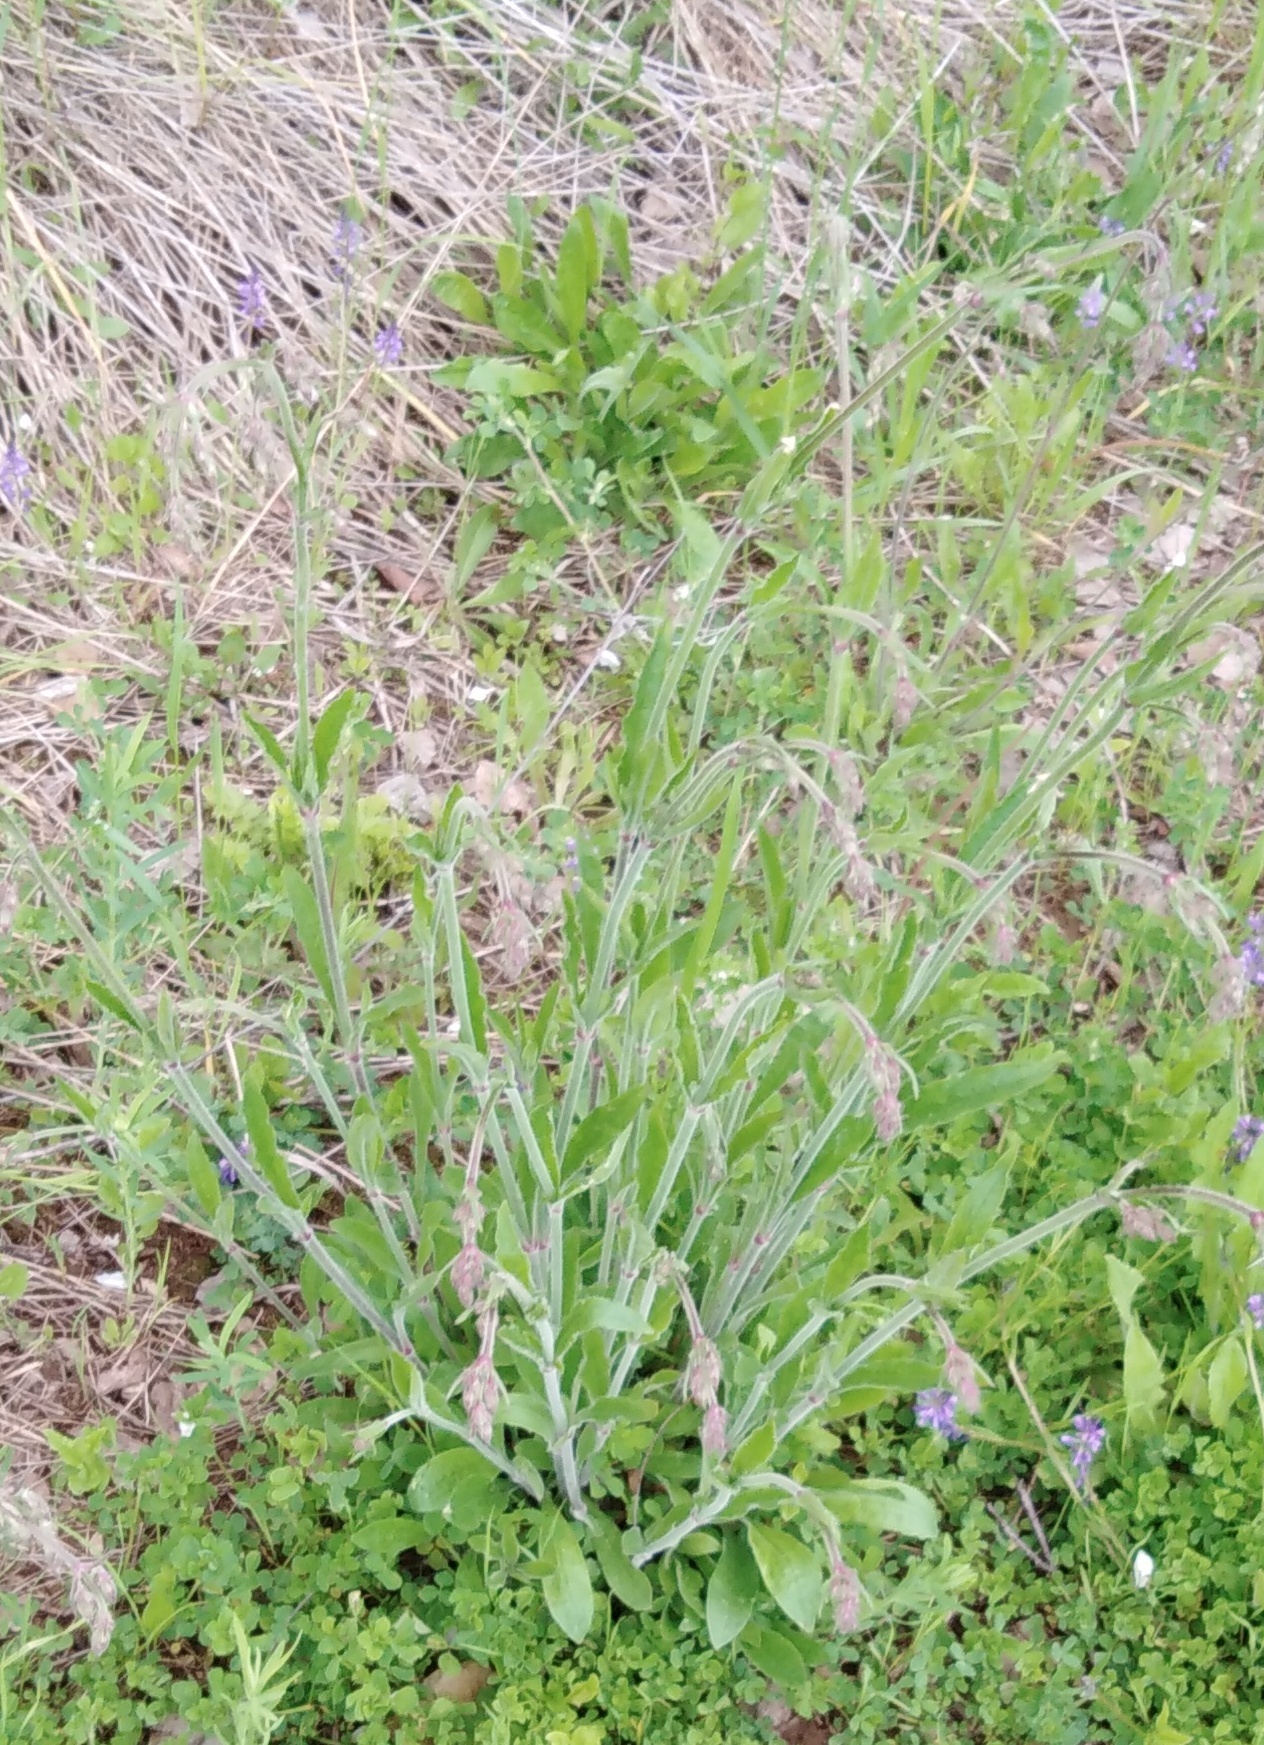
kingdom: Plantae
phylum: Tracheophyta
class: Magnoliopsida
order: Caryophyllales
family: Caryophyllaceae
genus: Silene
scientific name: Silene nutans
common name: Nottingham catchfly
